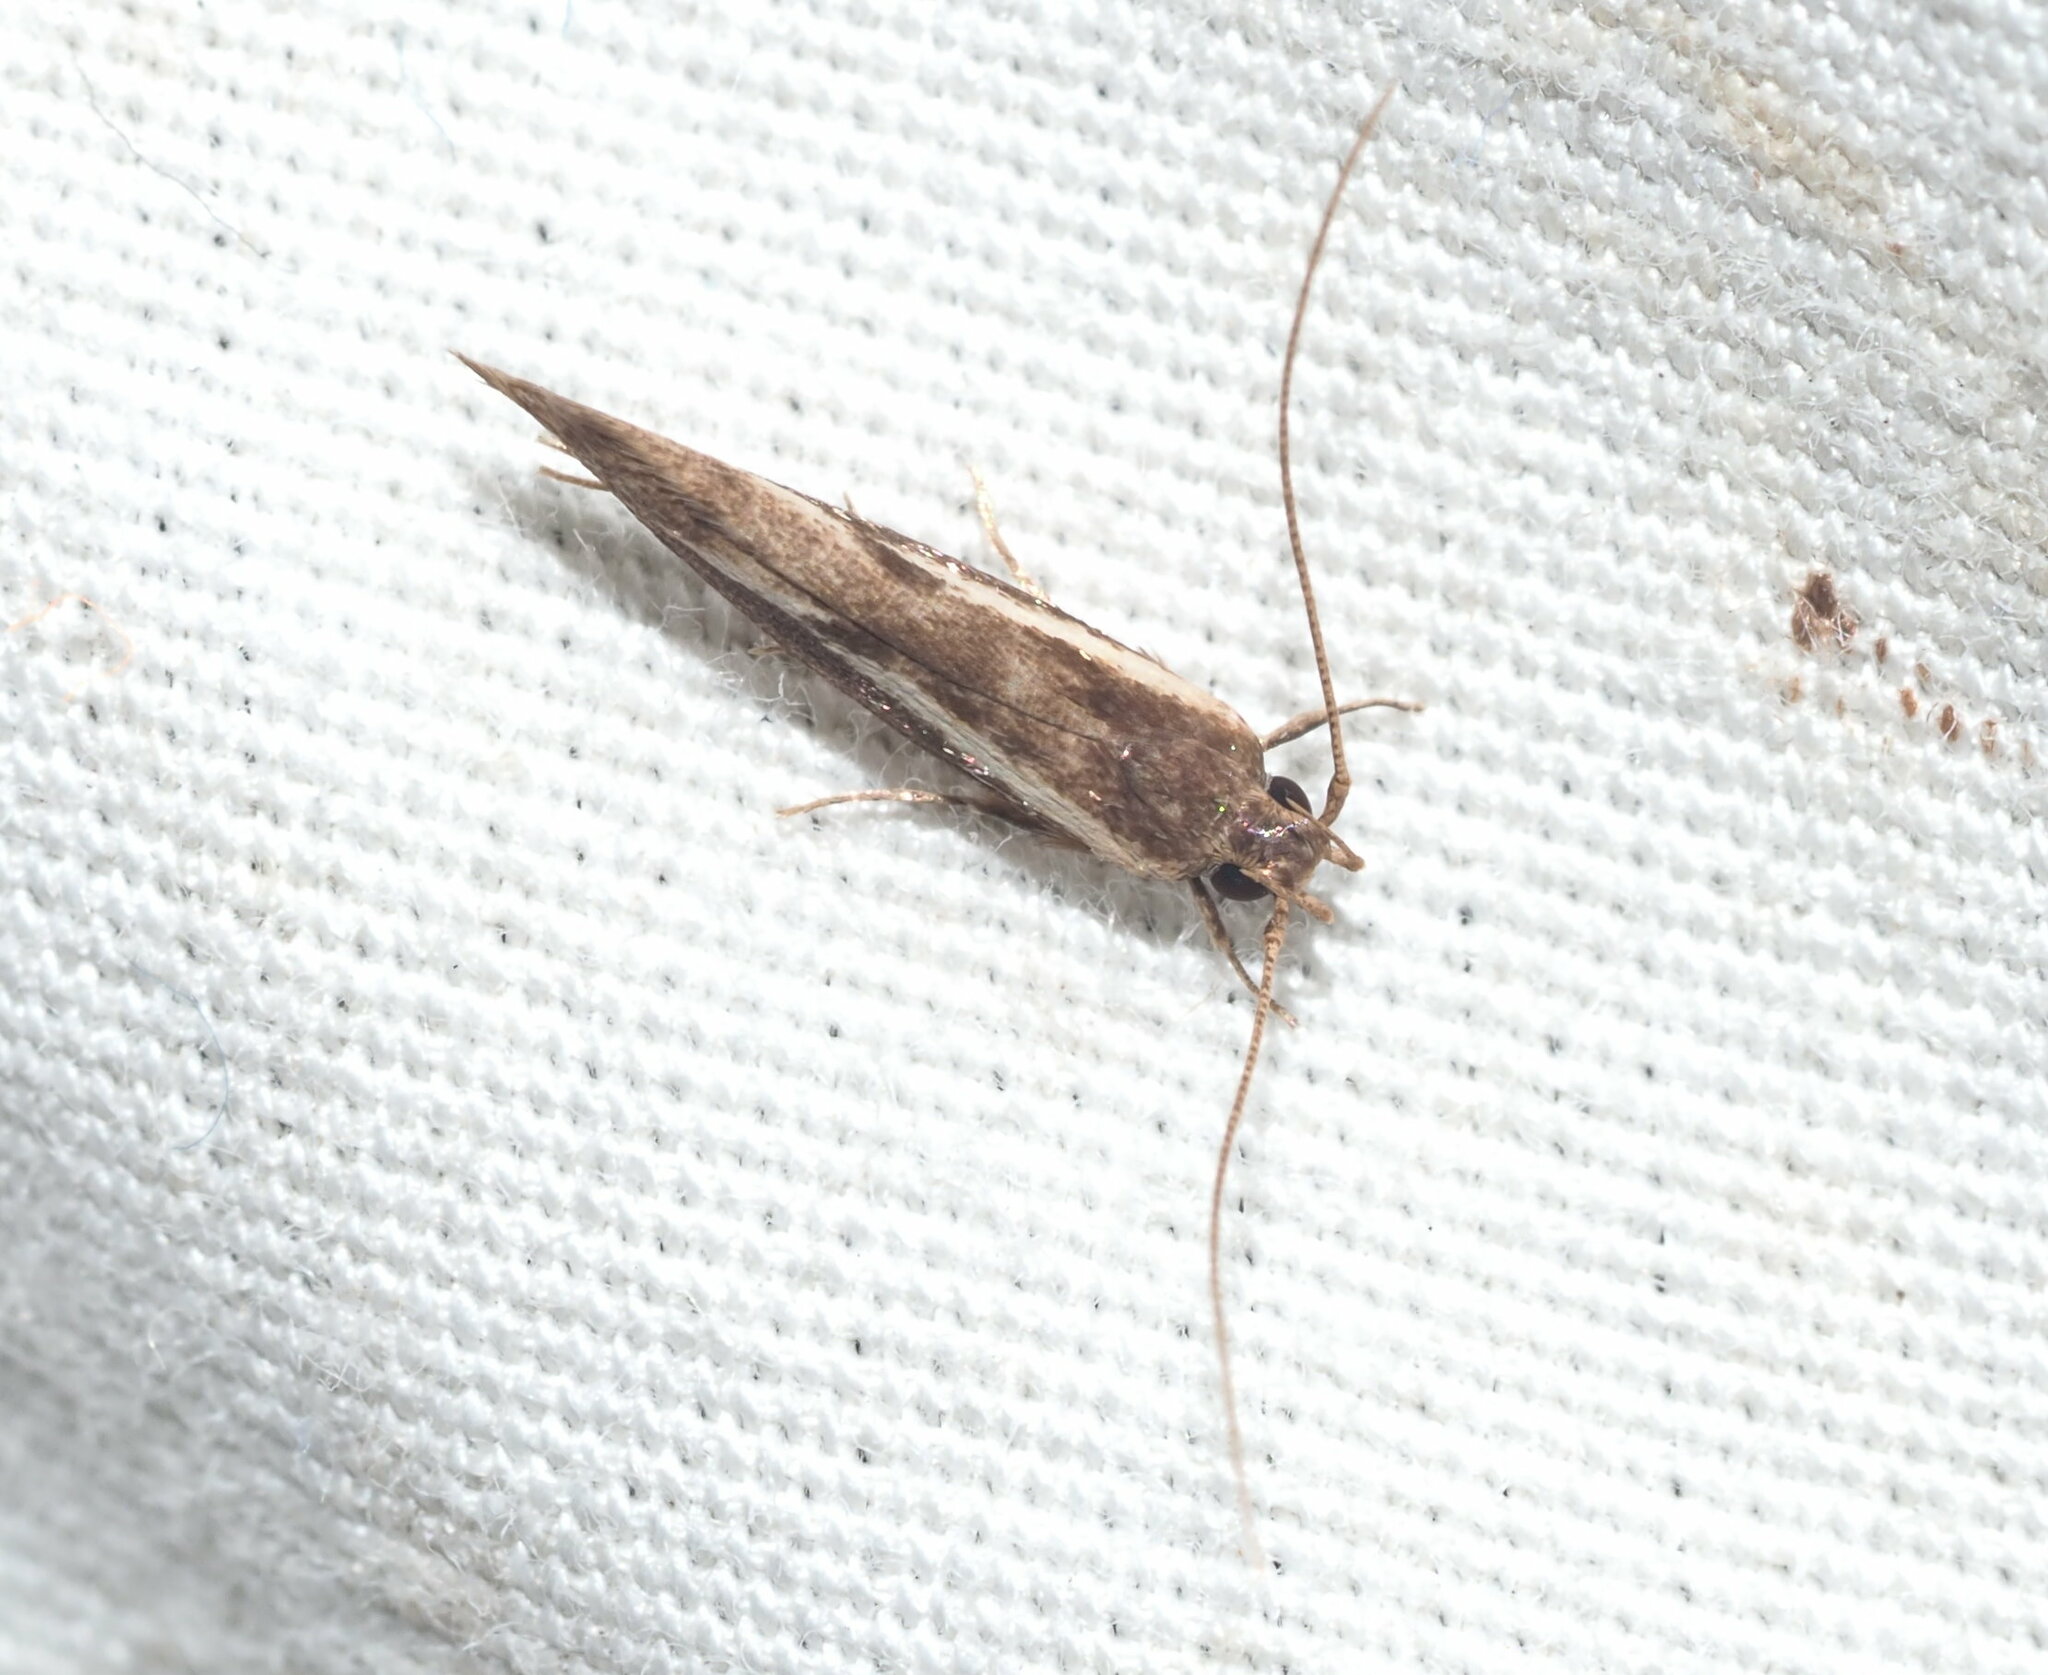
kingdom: Animalia
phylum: Arthropoda
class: Insecta
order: Lepidoptera
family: Cosmopterigidae
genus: Hyposmochoma
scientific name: Hyposmochoma mesorectis
